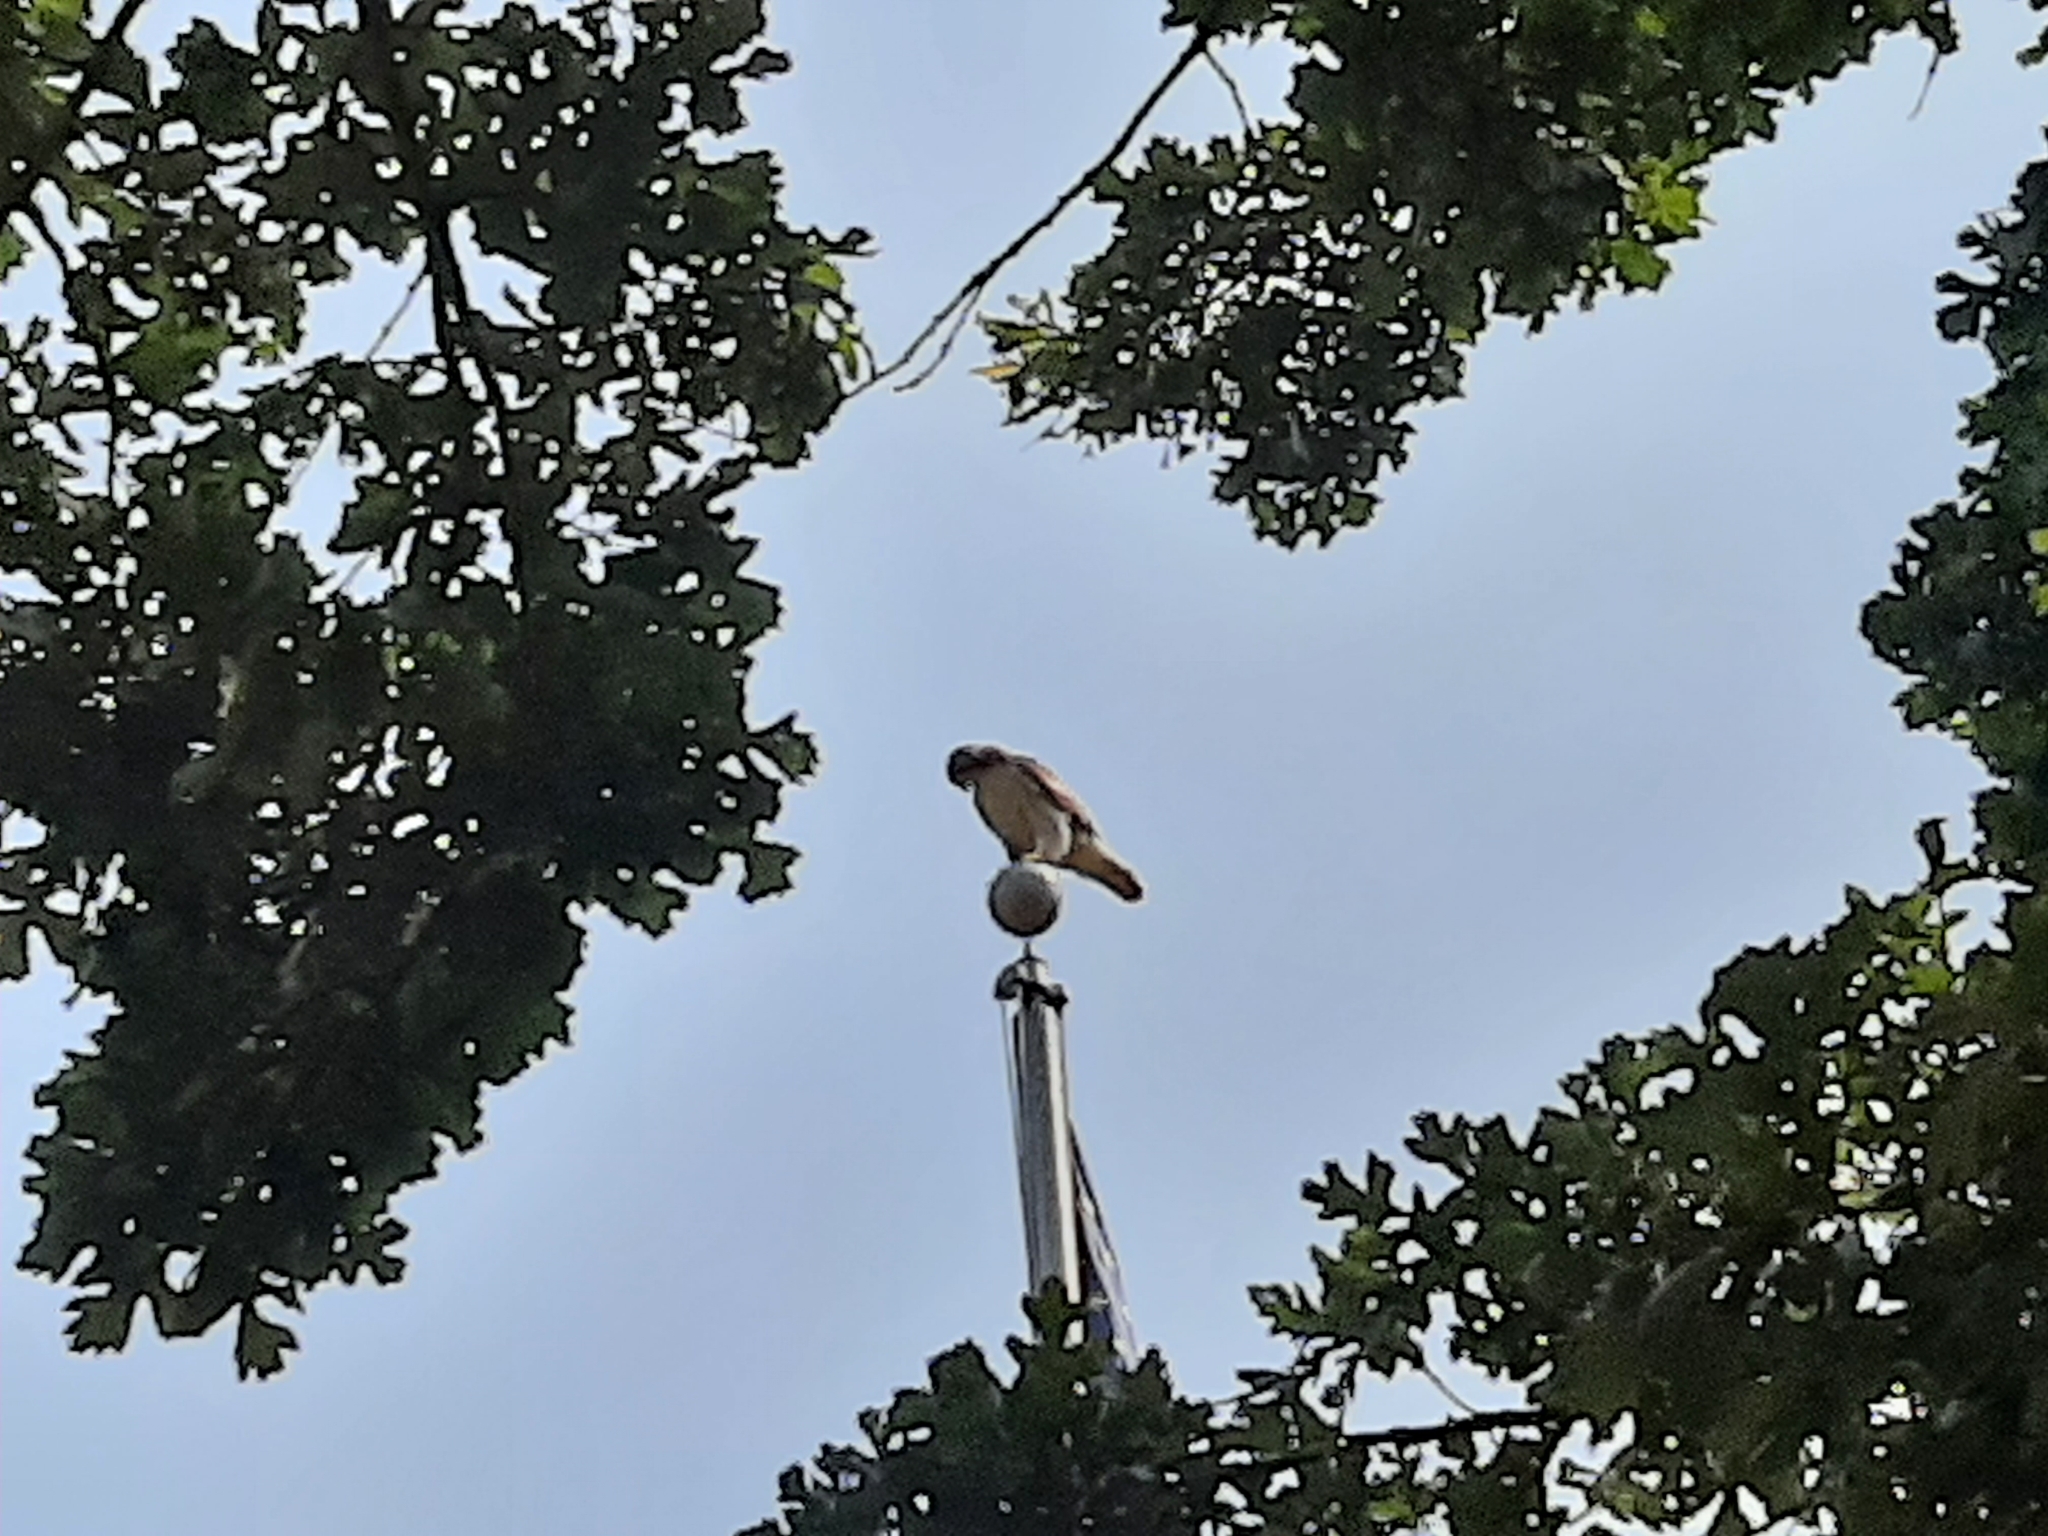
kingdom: Animalia
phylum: Chordata
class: Aves
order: Accipitriformes
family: Accipitridae
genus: Buteo
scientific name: Buteo jamaicensis
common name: Red-tailed hawk
